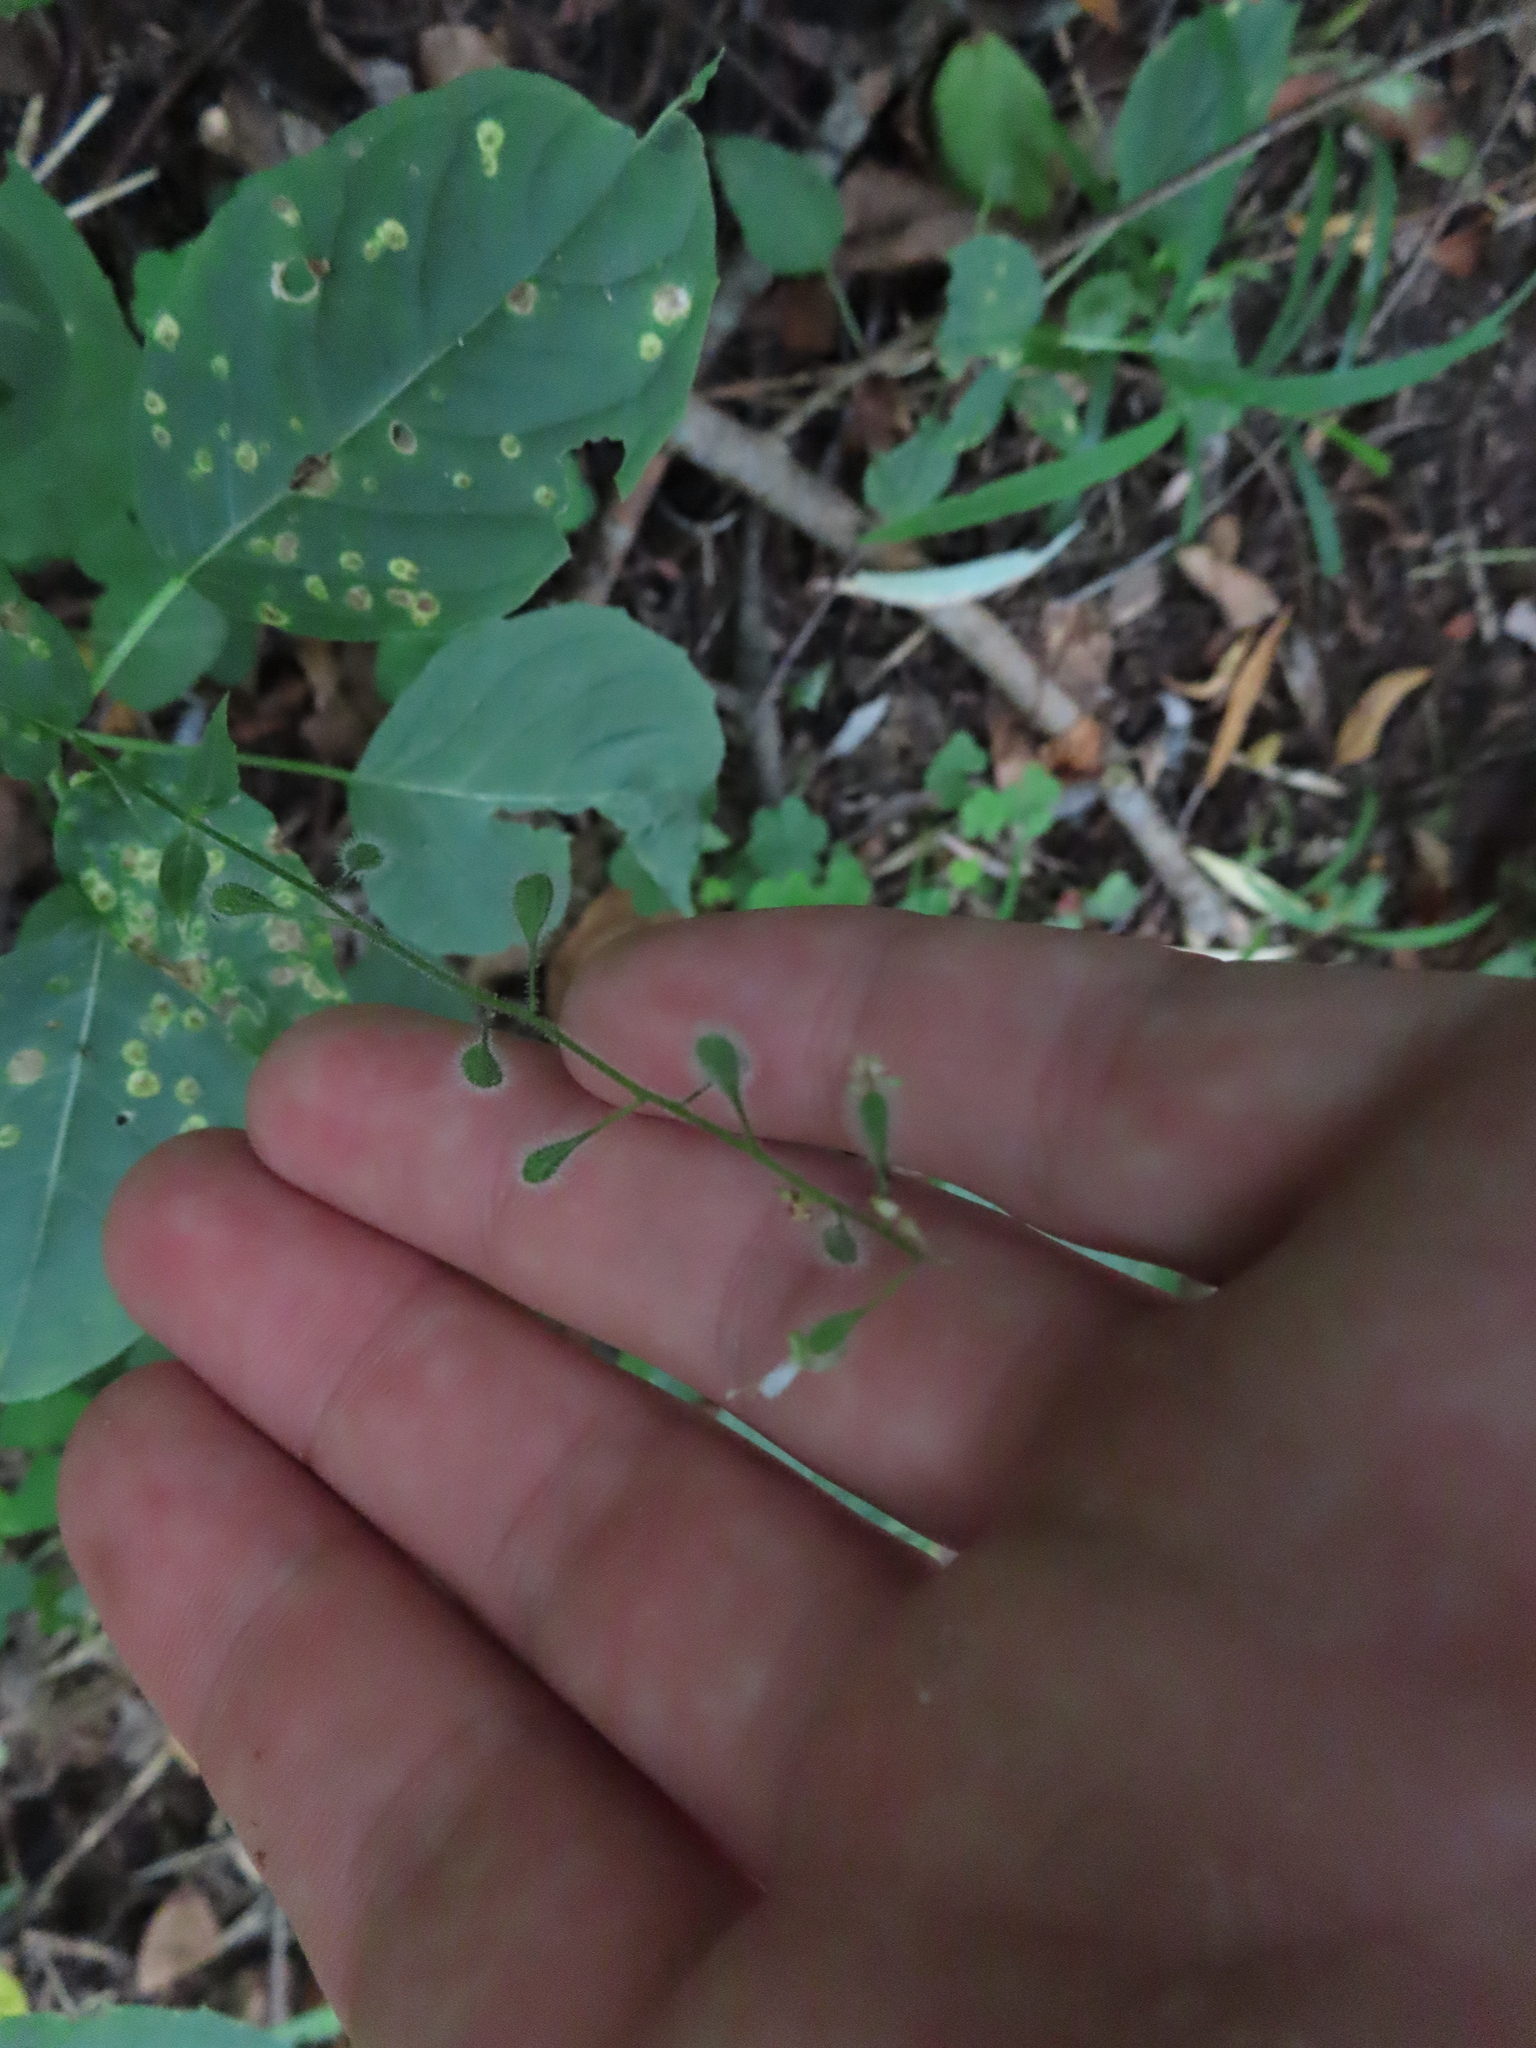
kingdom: Plantae
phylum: Tracheophyta
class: Magnoliopsida
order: Myrtales
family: Onagraceae
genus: Circaea
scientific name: Circaea canadensis
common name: Broad-leaved enchanter's nightshade
